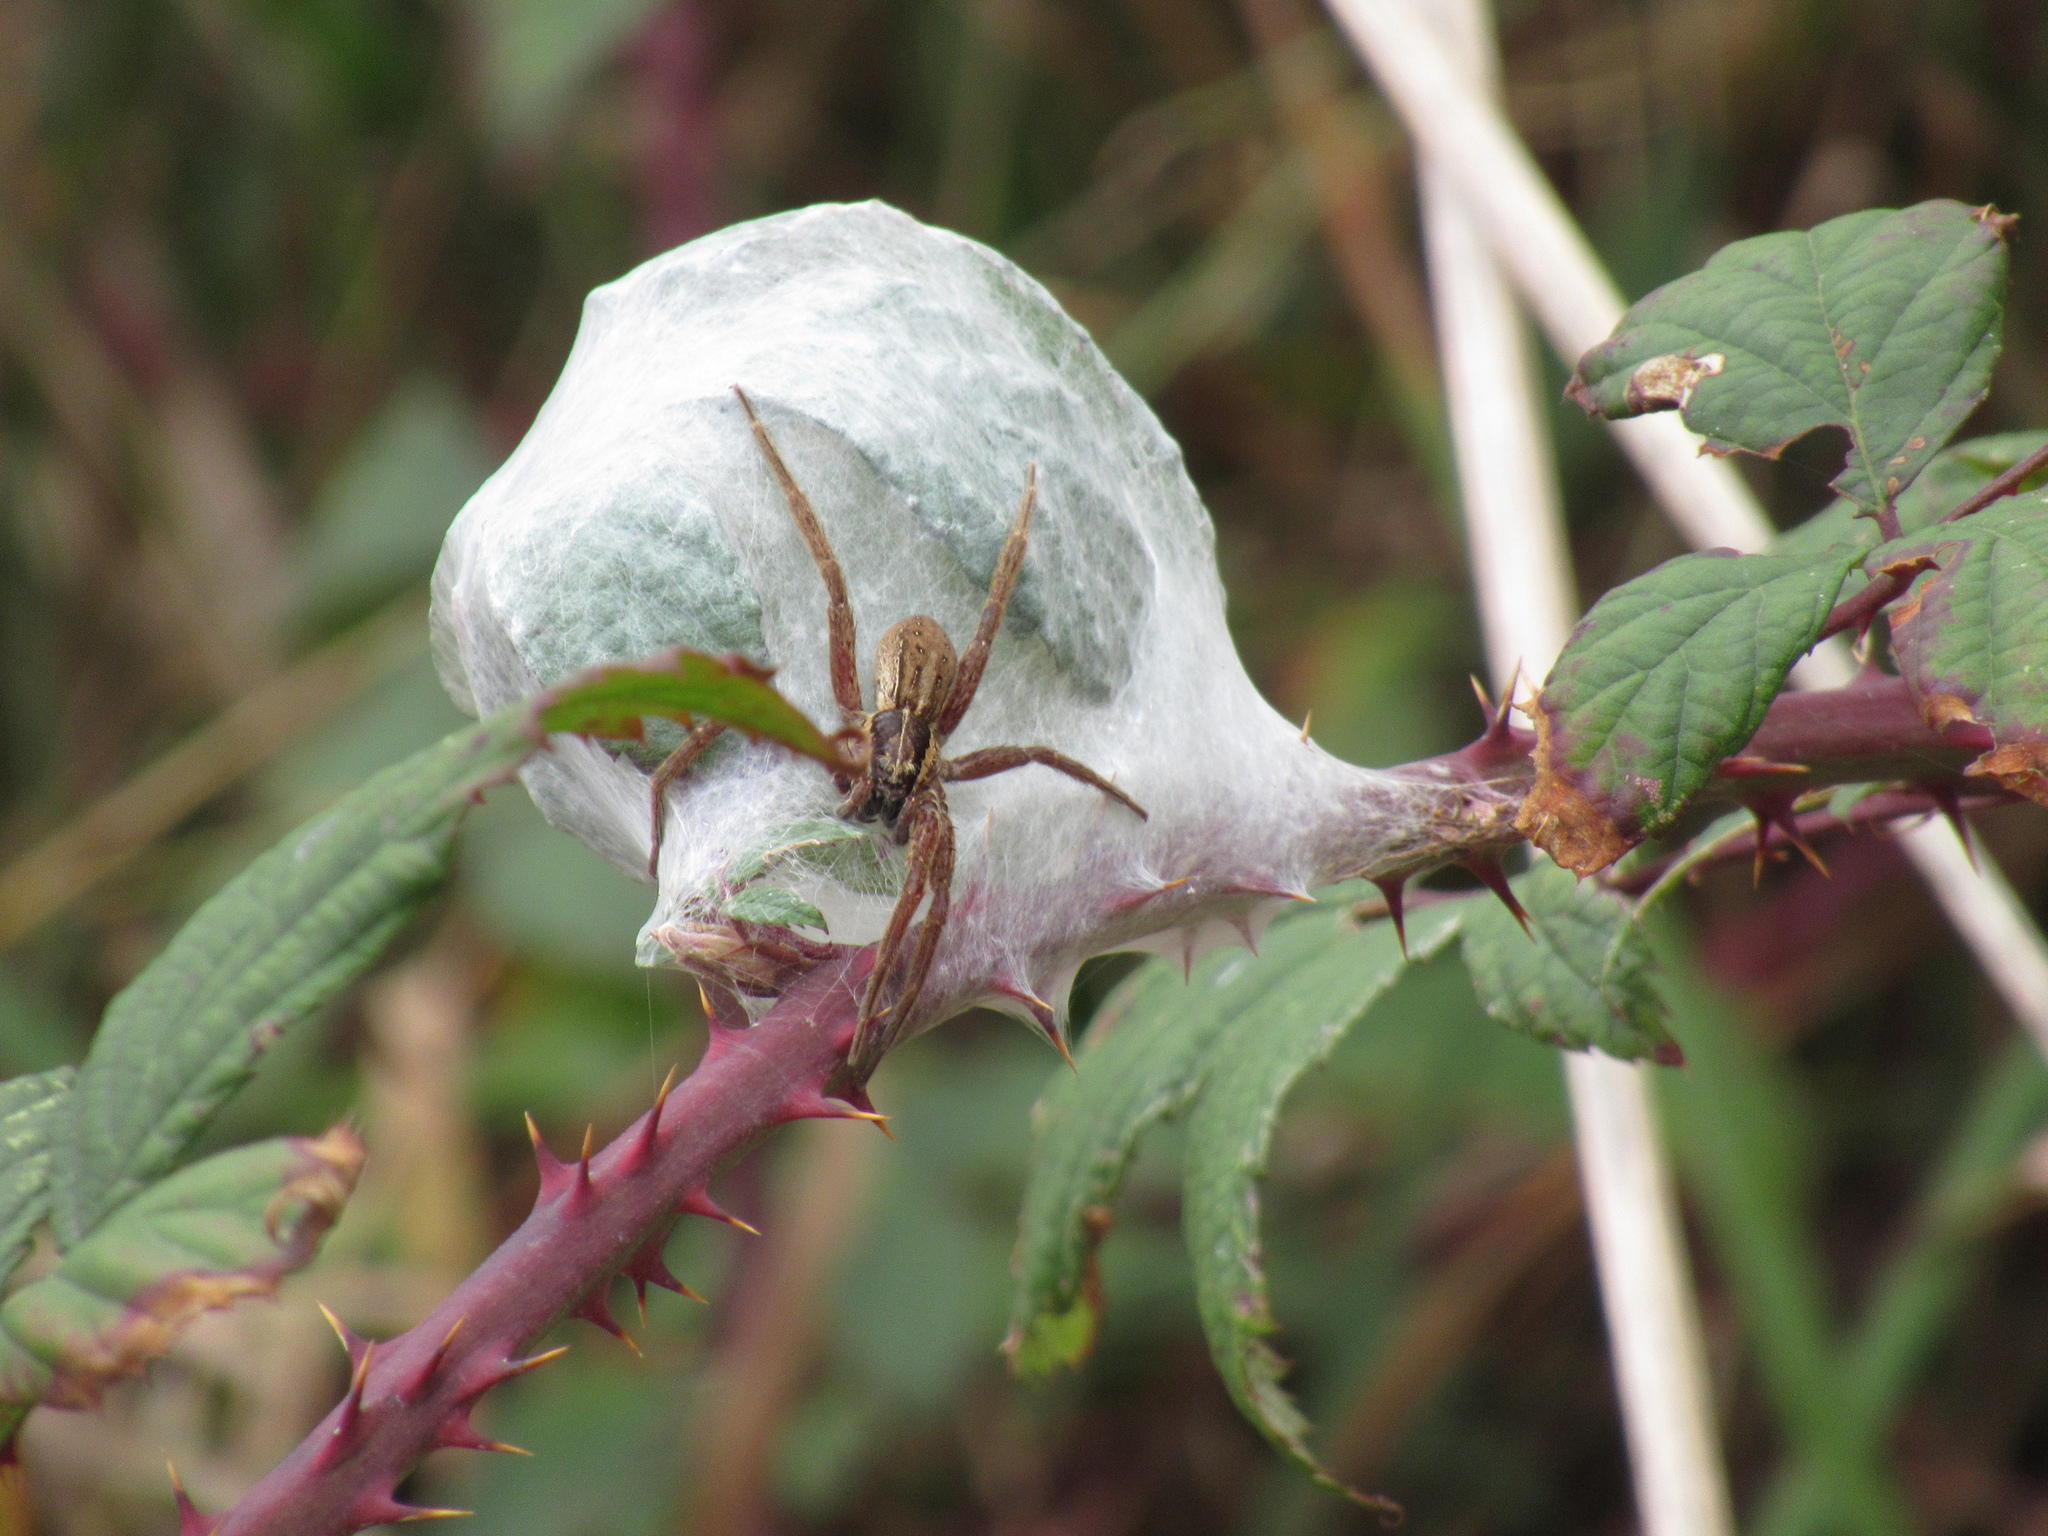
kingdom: Animalia
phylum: Arthropoda
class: Arachnida
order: Araneae
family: Pisauridae
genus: Dolomedes
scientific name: Dolomedes minor
